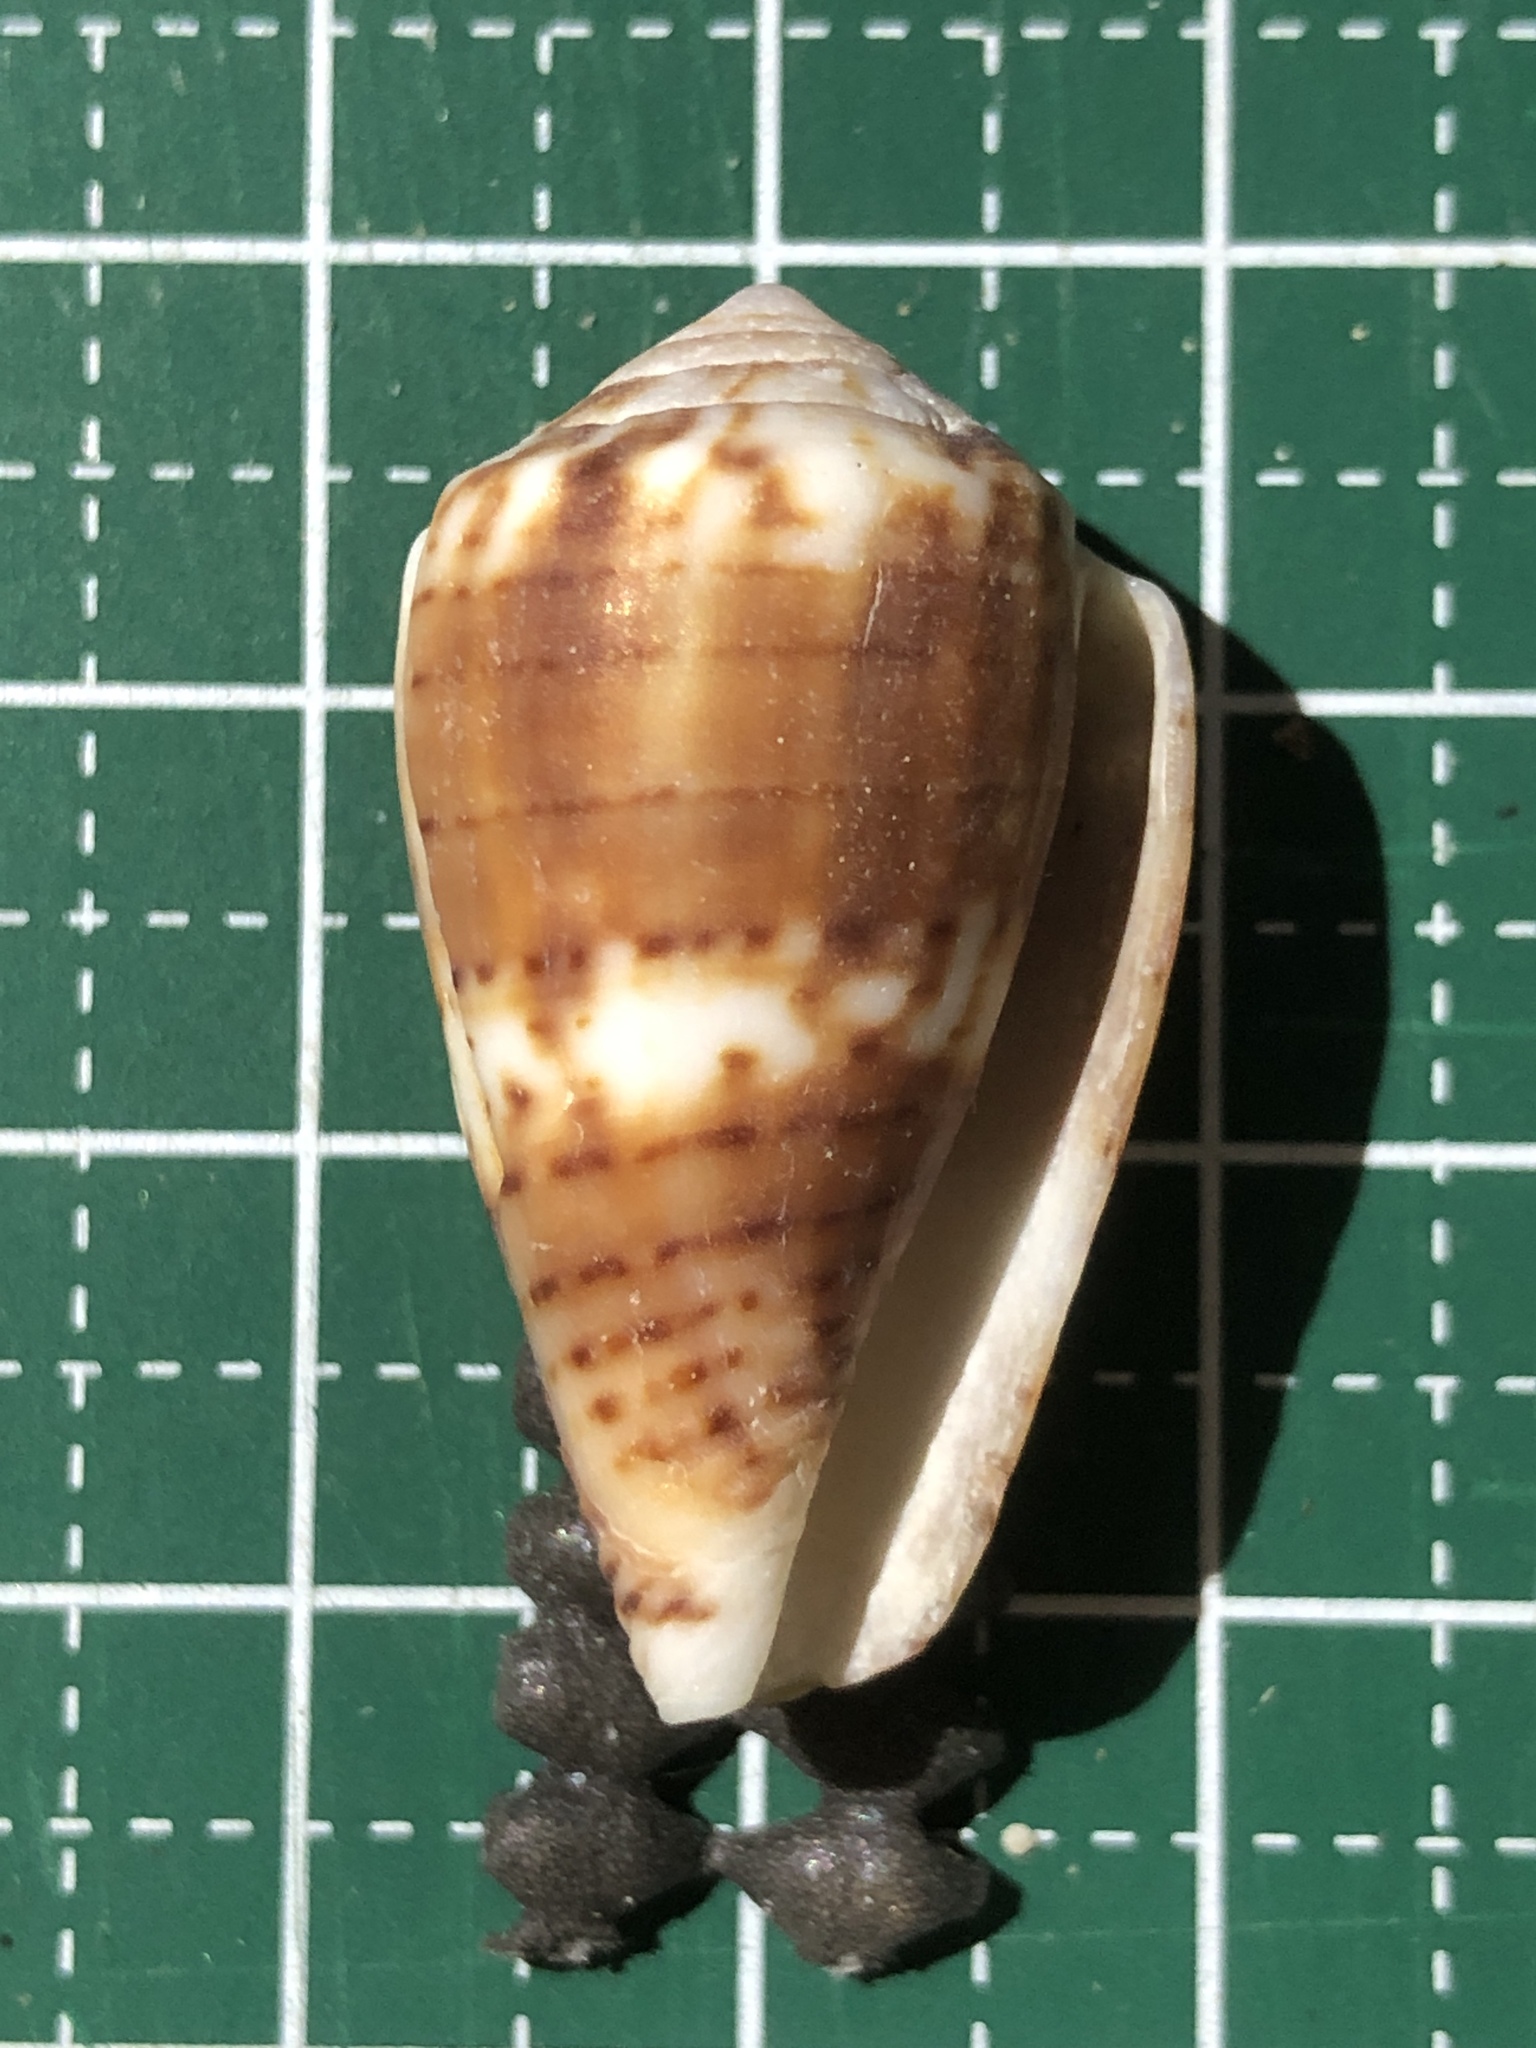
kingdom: Animalia
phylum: Mollusca
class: Gastropoda
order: Neogastropoda
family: Conidae
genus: Conus
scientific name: Conus boeticus
